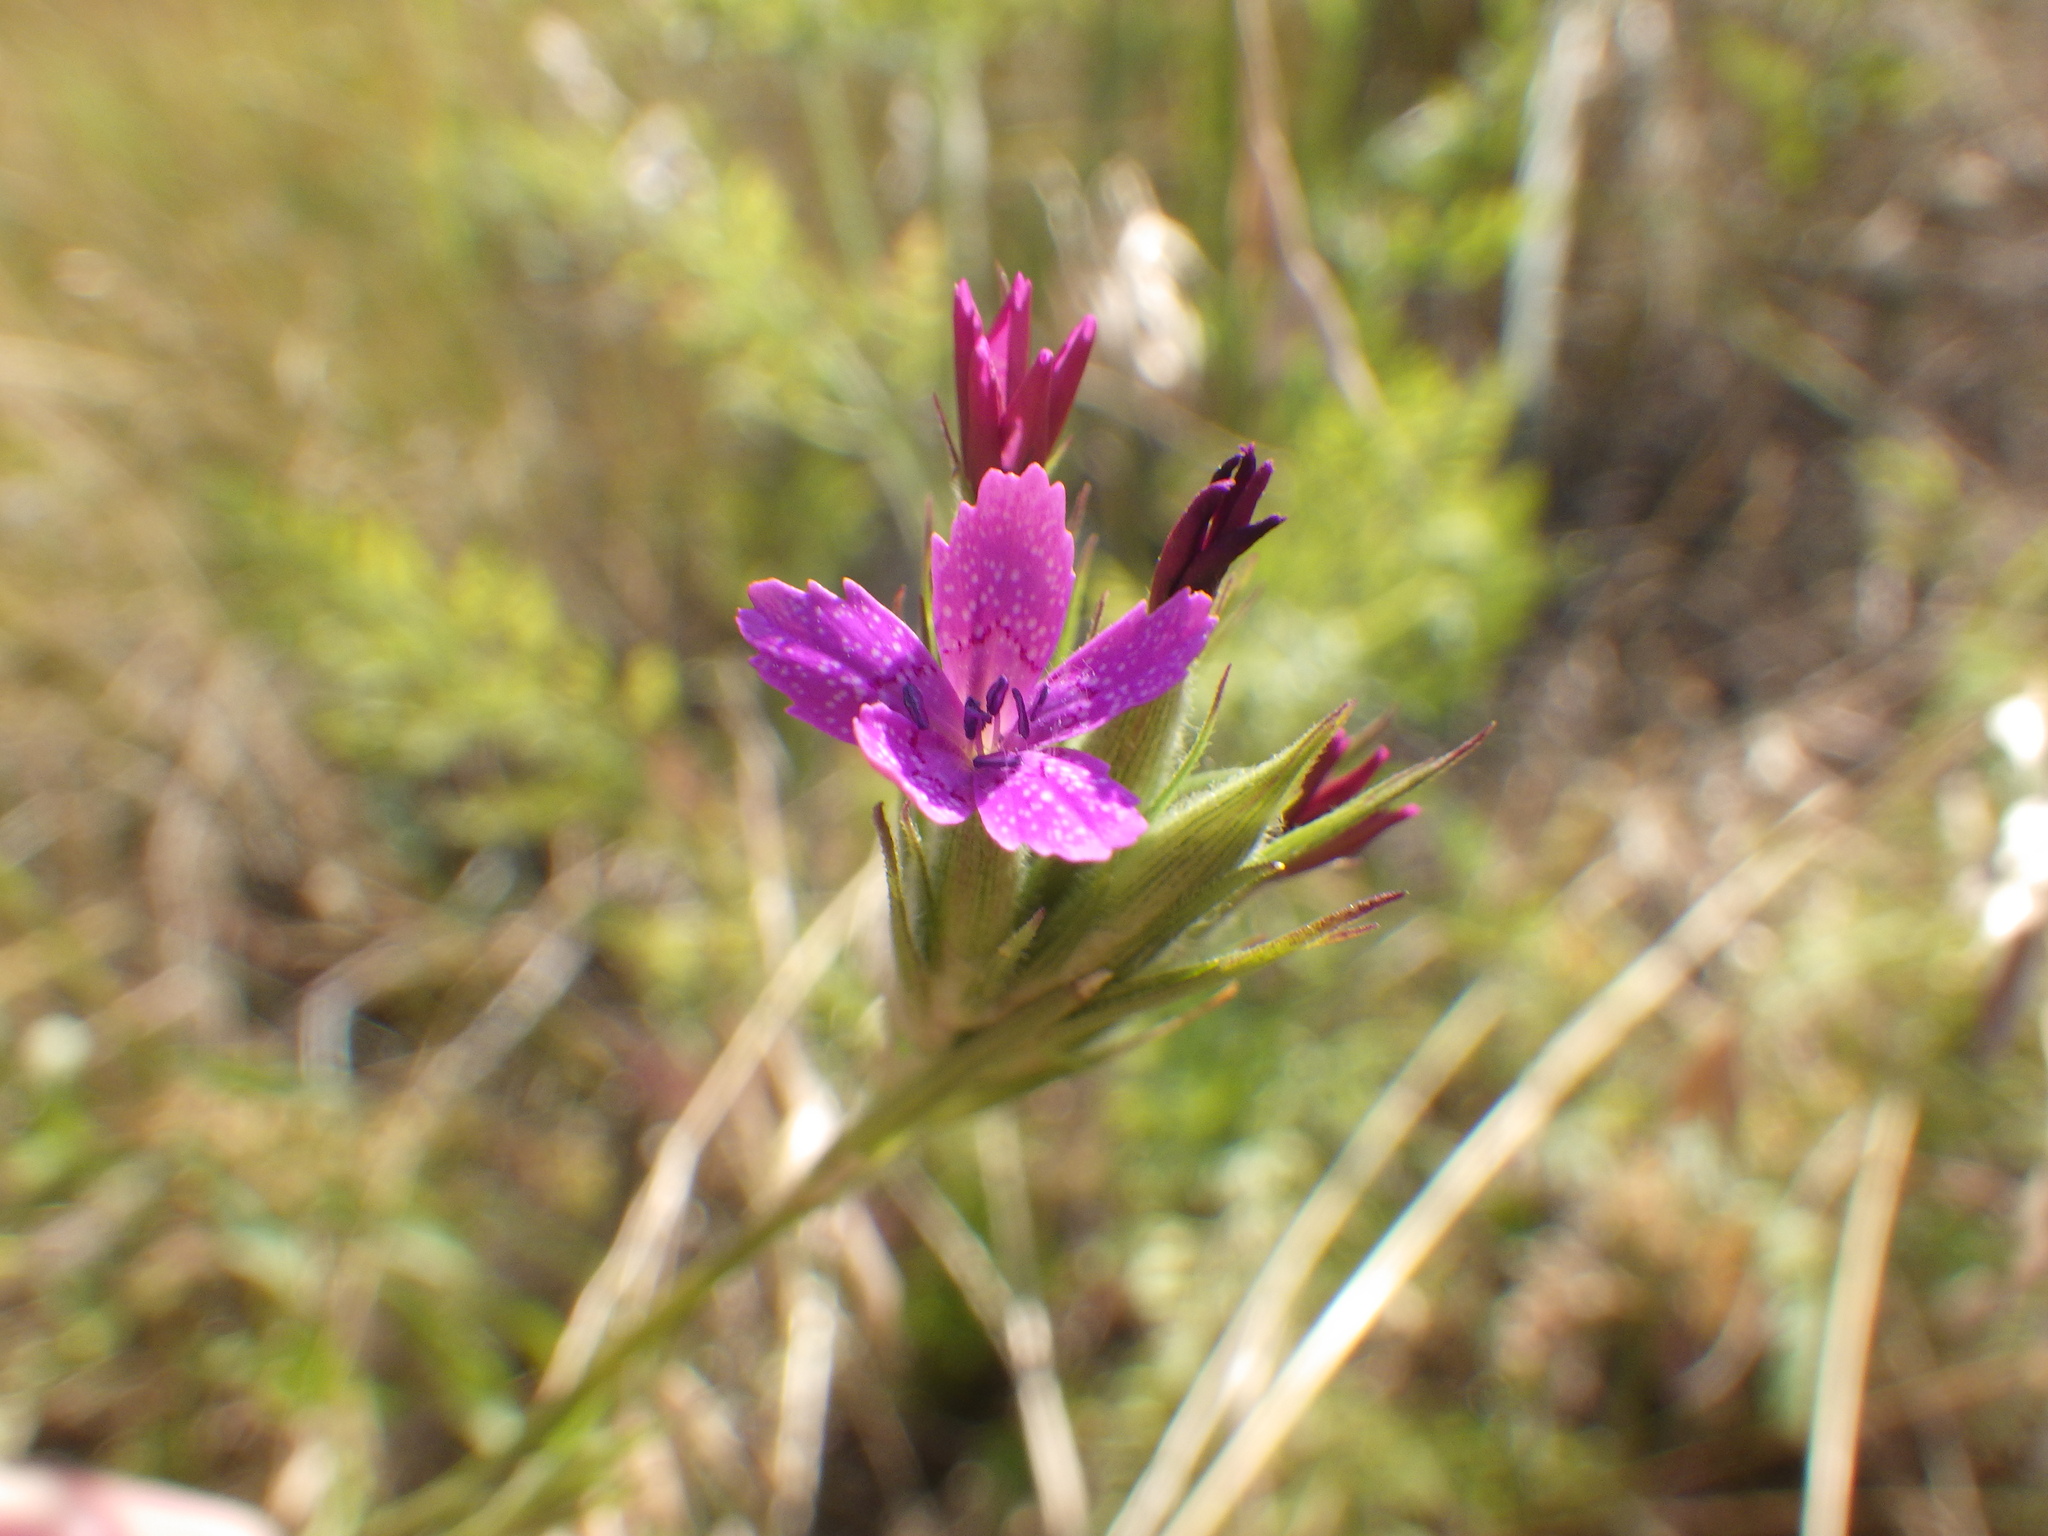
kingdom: Plantae
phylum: Tracheophyta
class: Magnoliopsida
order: Caryophyllales
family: Caryophyllaceae
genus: Dianthus
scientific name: Dianthus armeria
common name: Deptford pink
